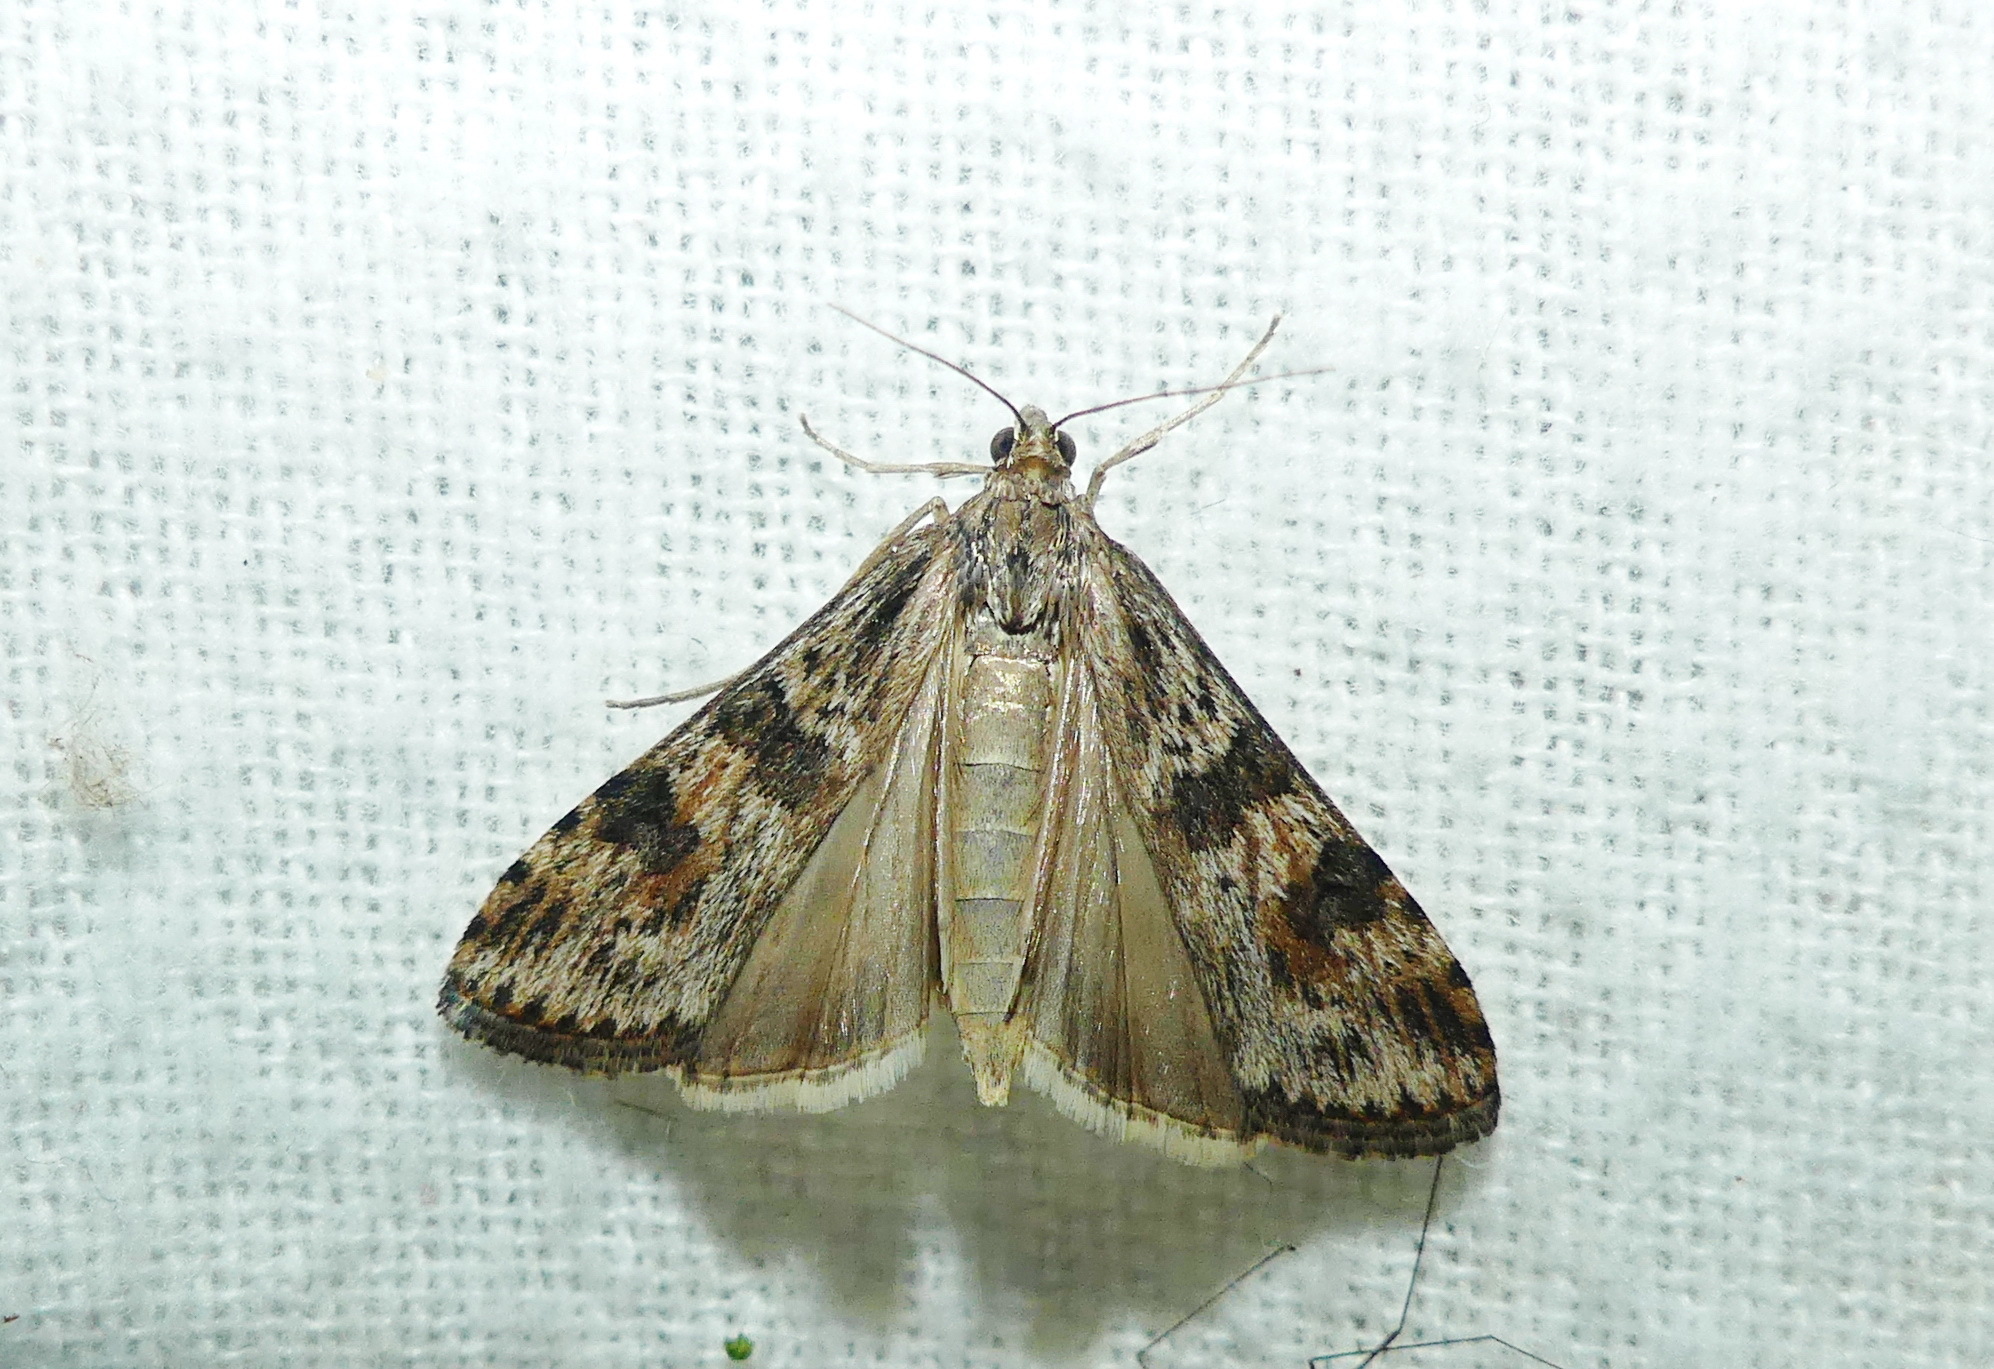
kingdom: Animalia
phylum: Arthropoda
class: Insecta
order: Lepidoptera
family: Crambidae
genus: Nomophila
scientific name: Nomophila nearctica
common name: American rush veneer
